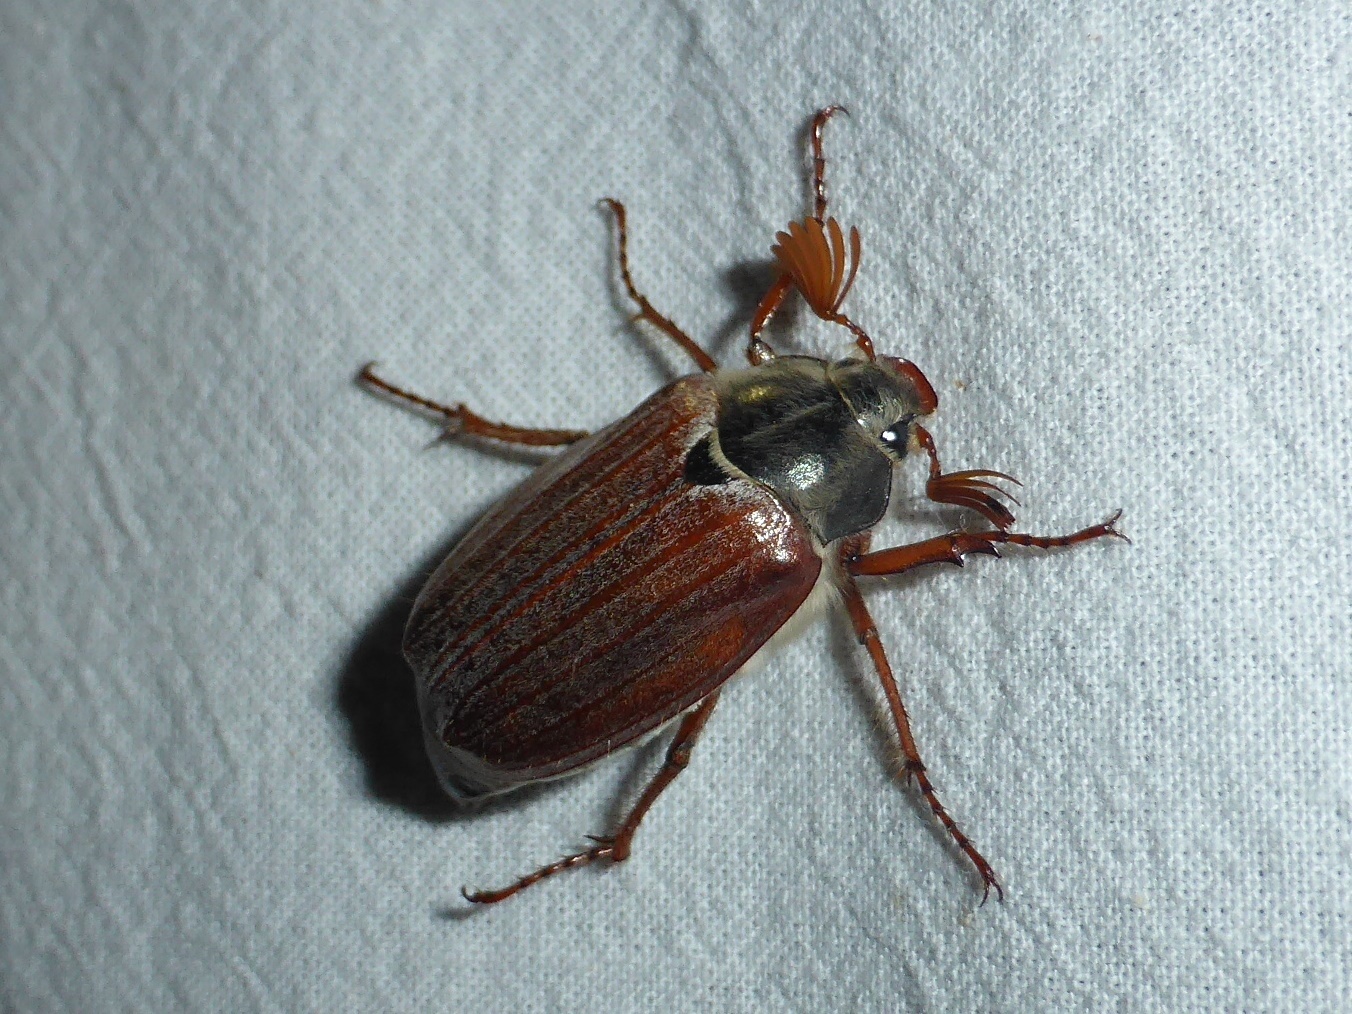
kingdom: Animalia
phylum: Arthropoda
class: Insecta
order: Coleoptera
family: Scarabaeidae
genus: Melolontha
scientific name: Melolontha melolontha
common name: Cockchafer maybeetle
